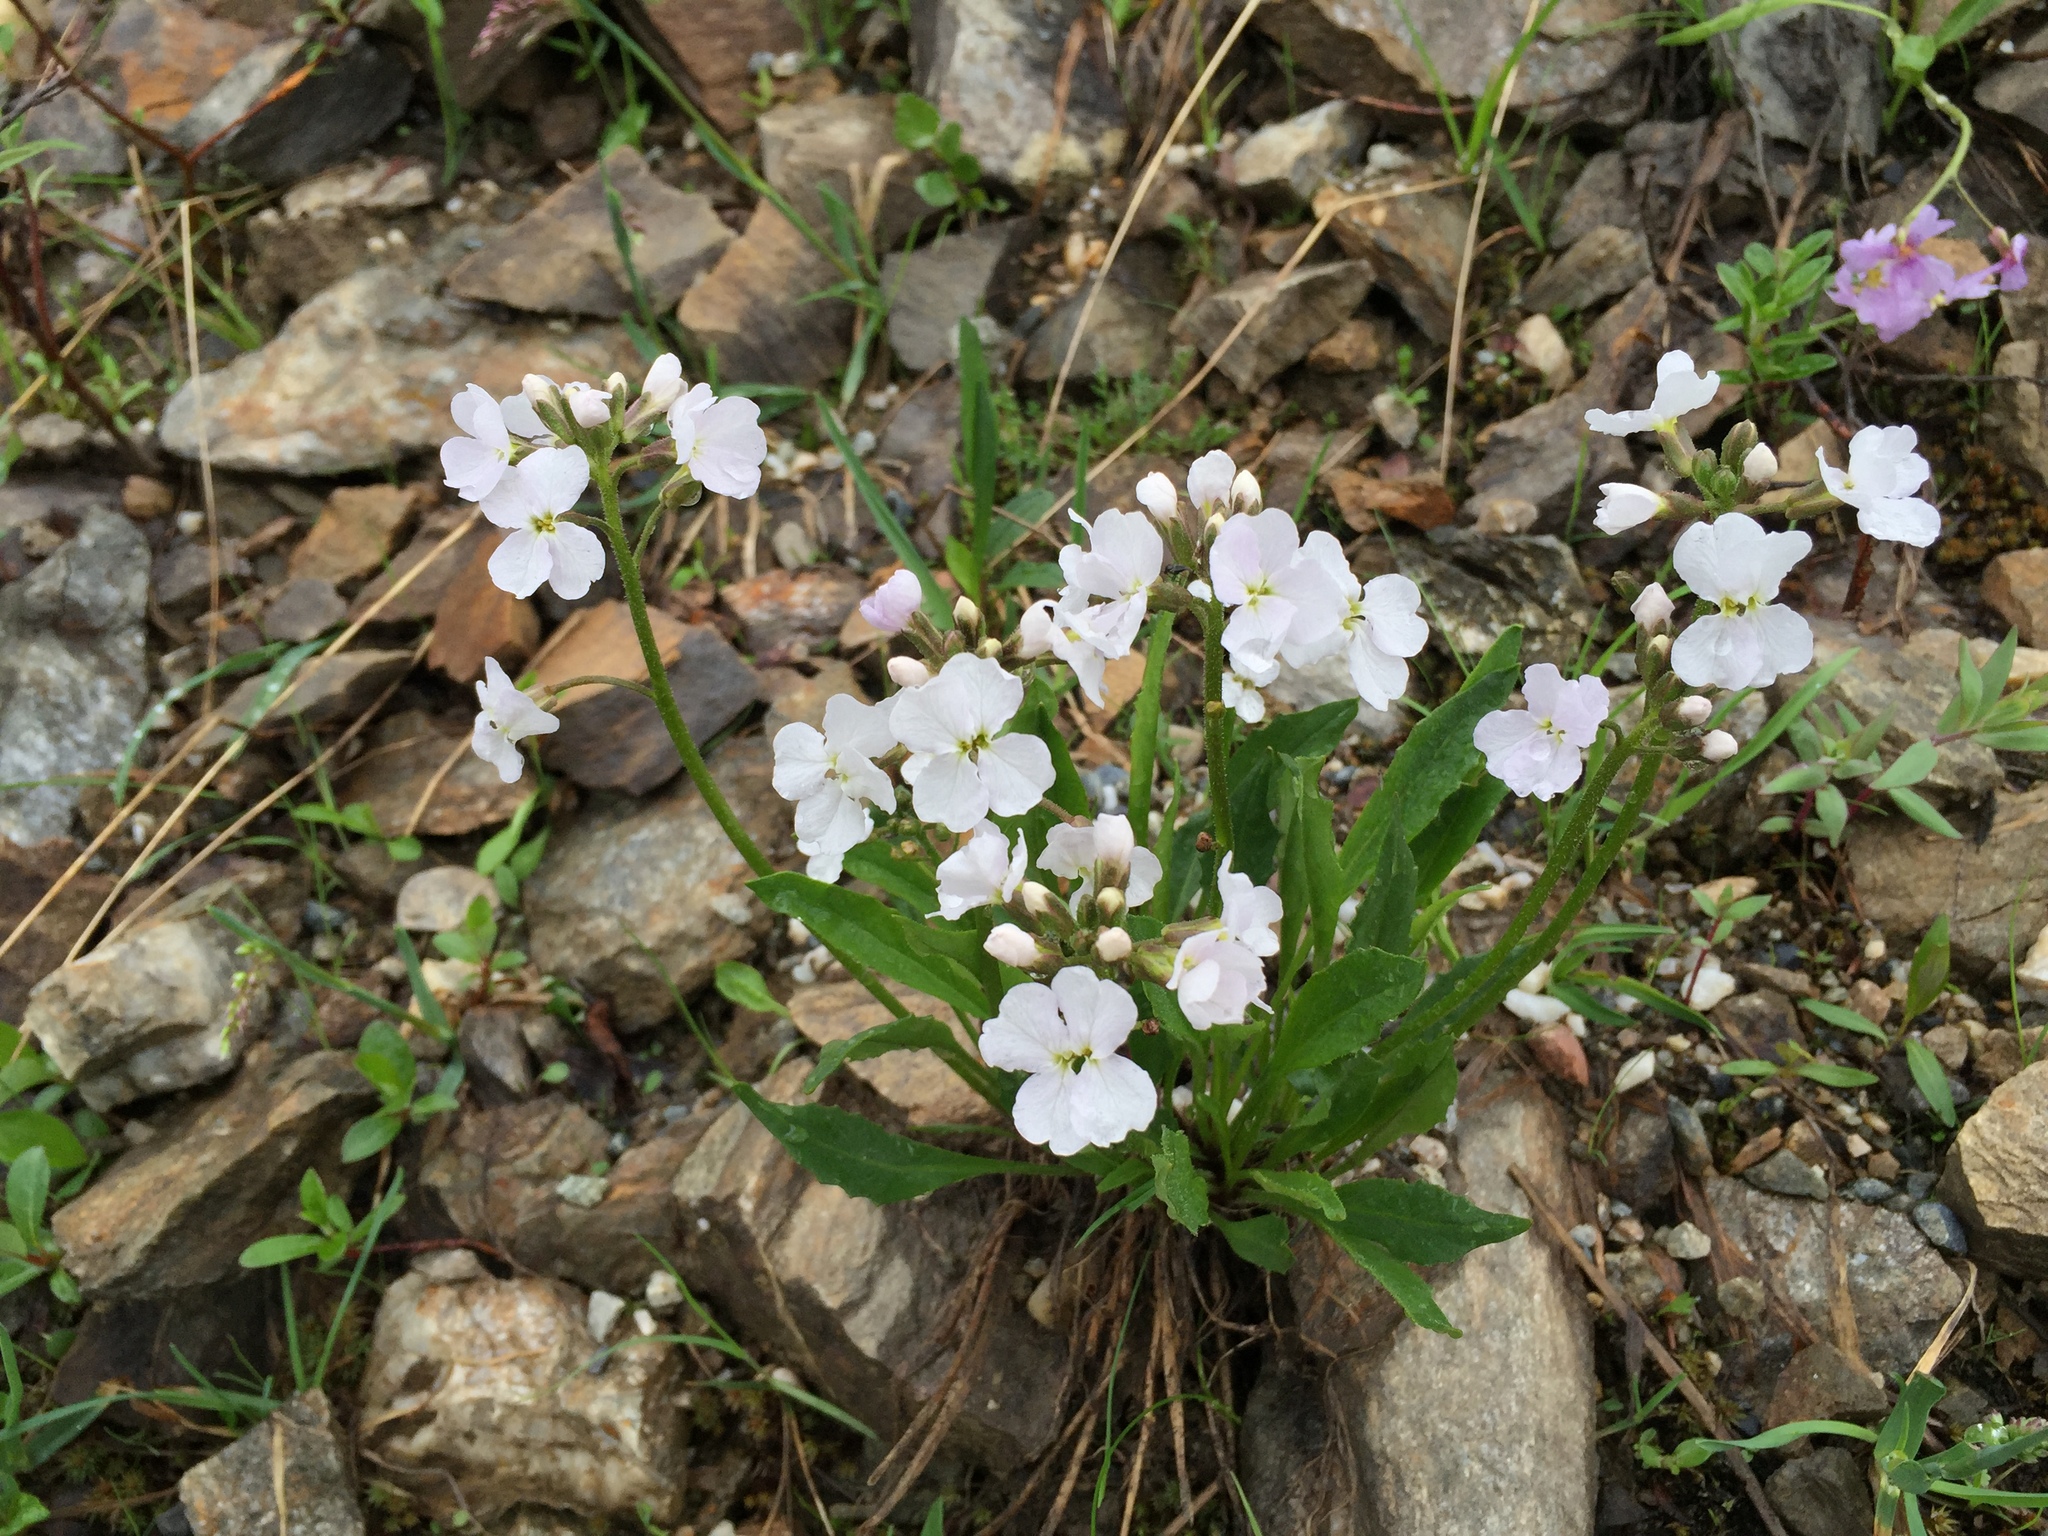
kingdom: Plantae
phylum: Tracheophyta
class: Magnoliopsida
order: Brassicales
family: Brassicaceae
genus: Parrya
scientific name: Parrya nudicaulis
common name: Naked-stemmed false wallflower
